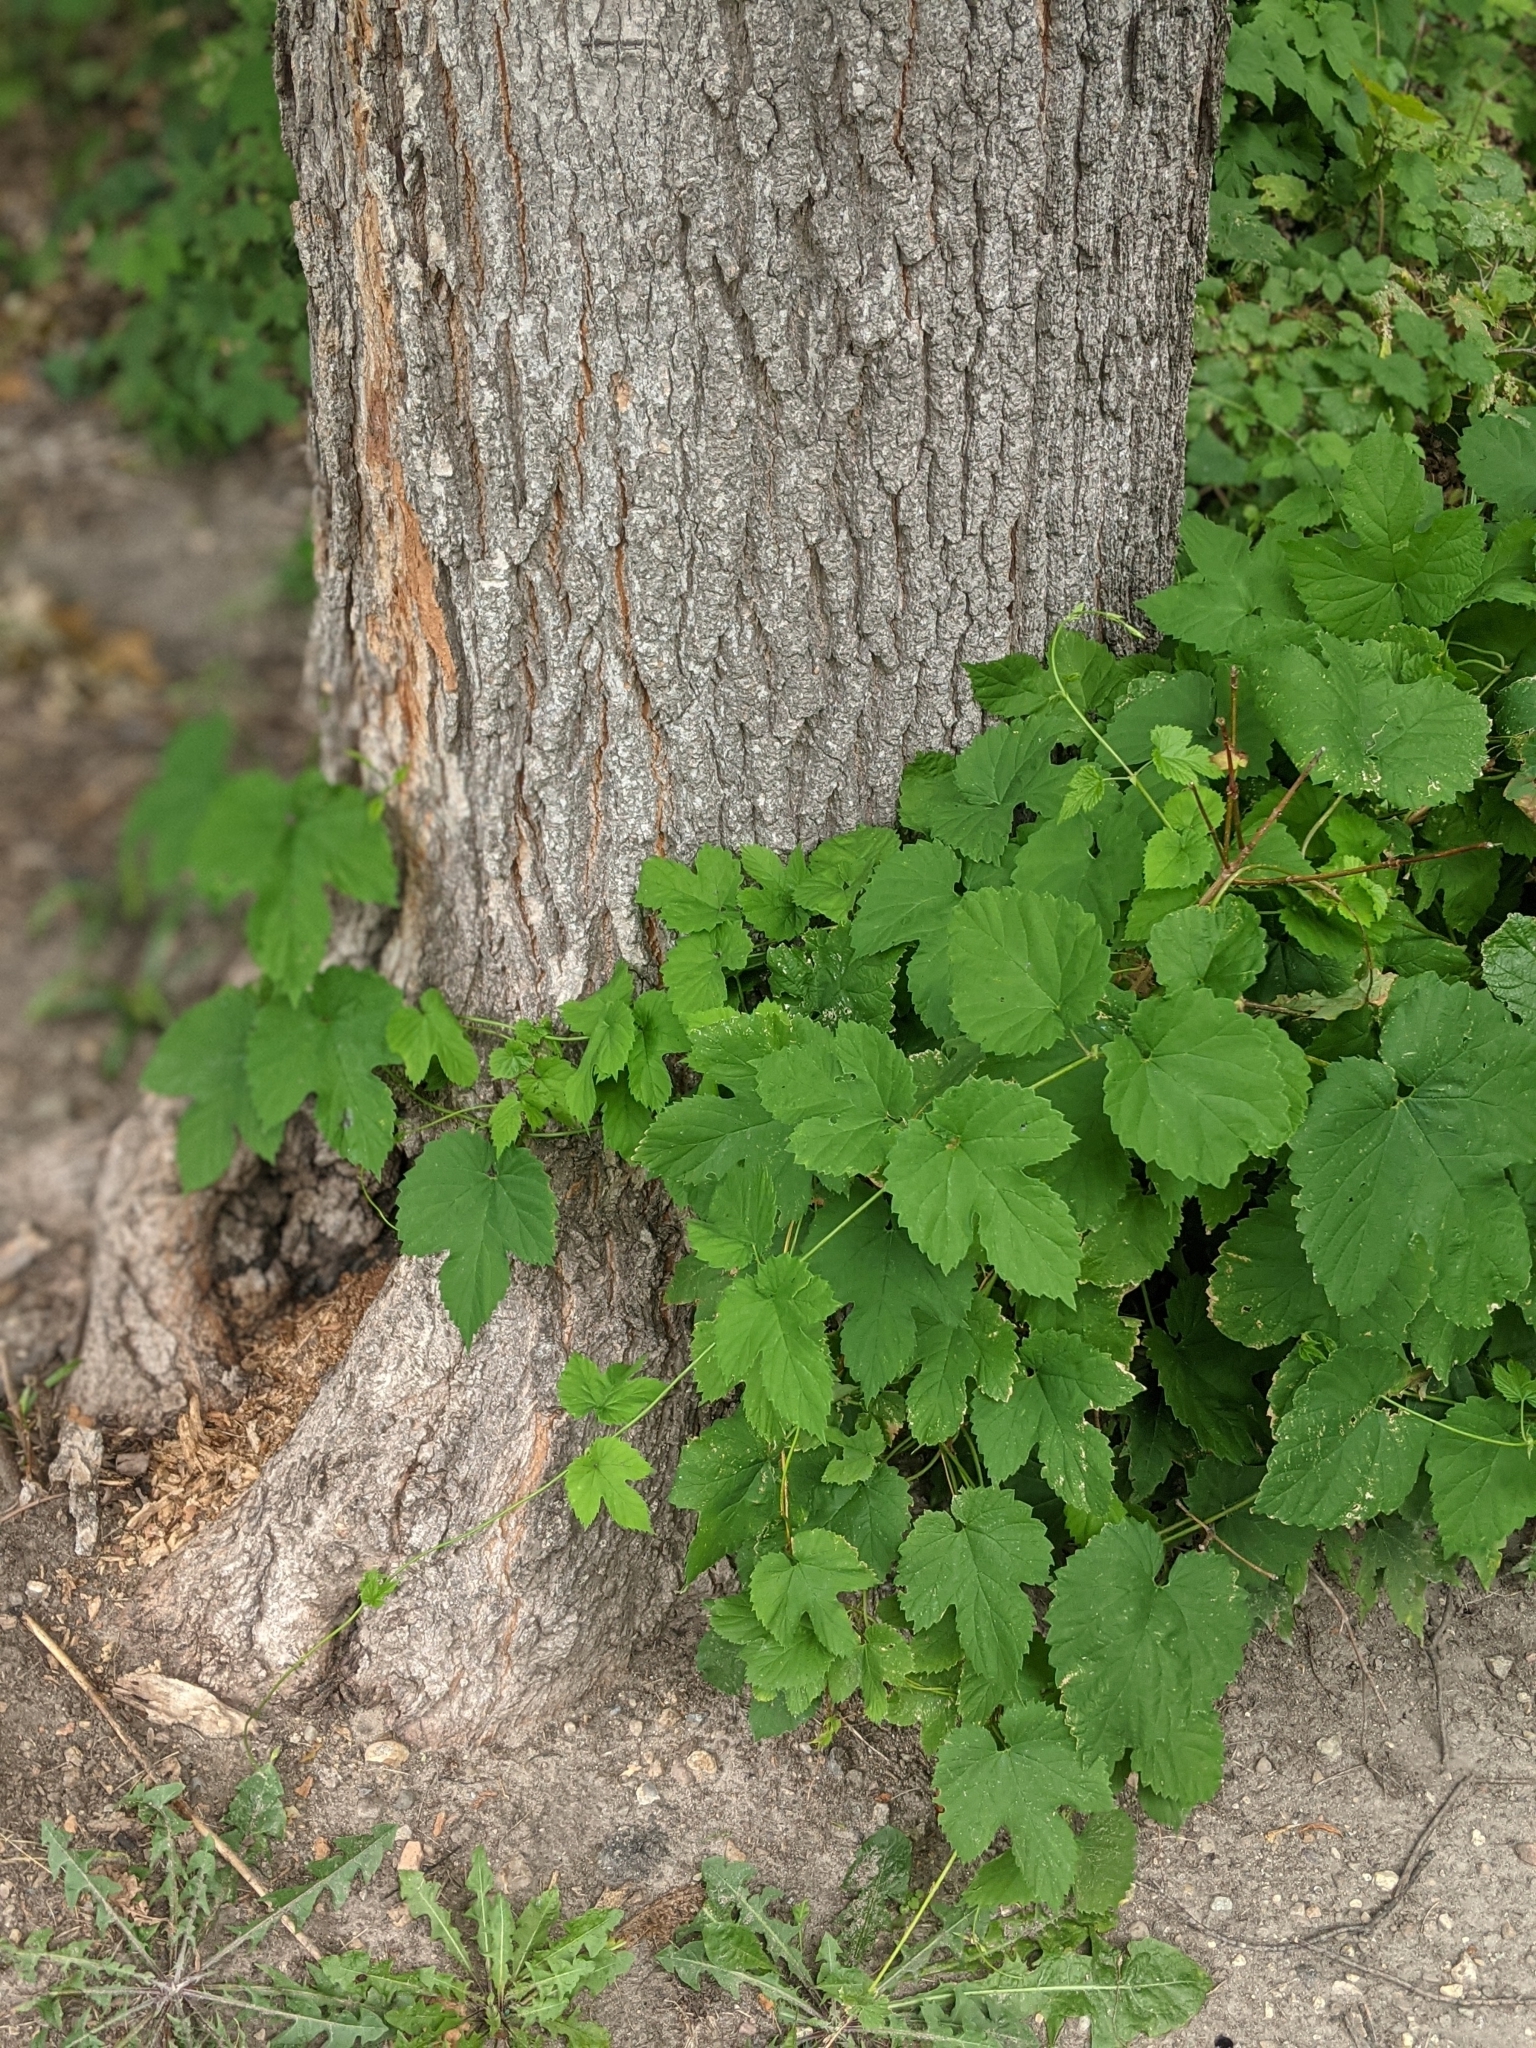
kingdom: Plantae
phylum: Tracheophyta
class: Magnoliopsida
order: Rosales
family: Cannabaceae
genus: Humulus
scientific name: Humulus lupulus
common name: Hop
